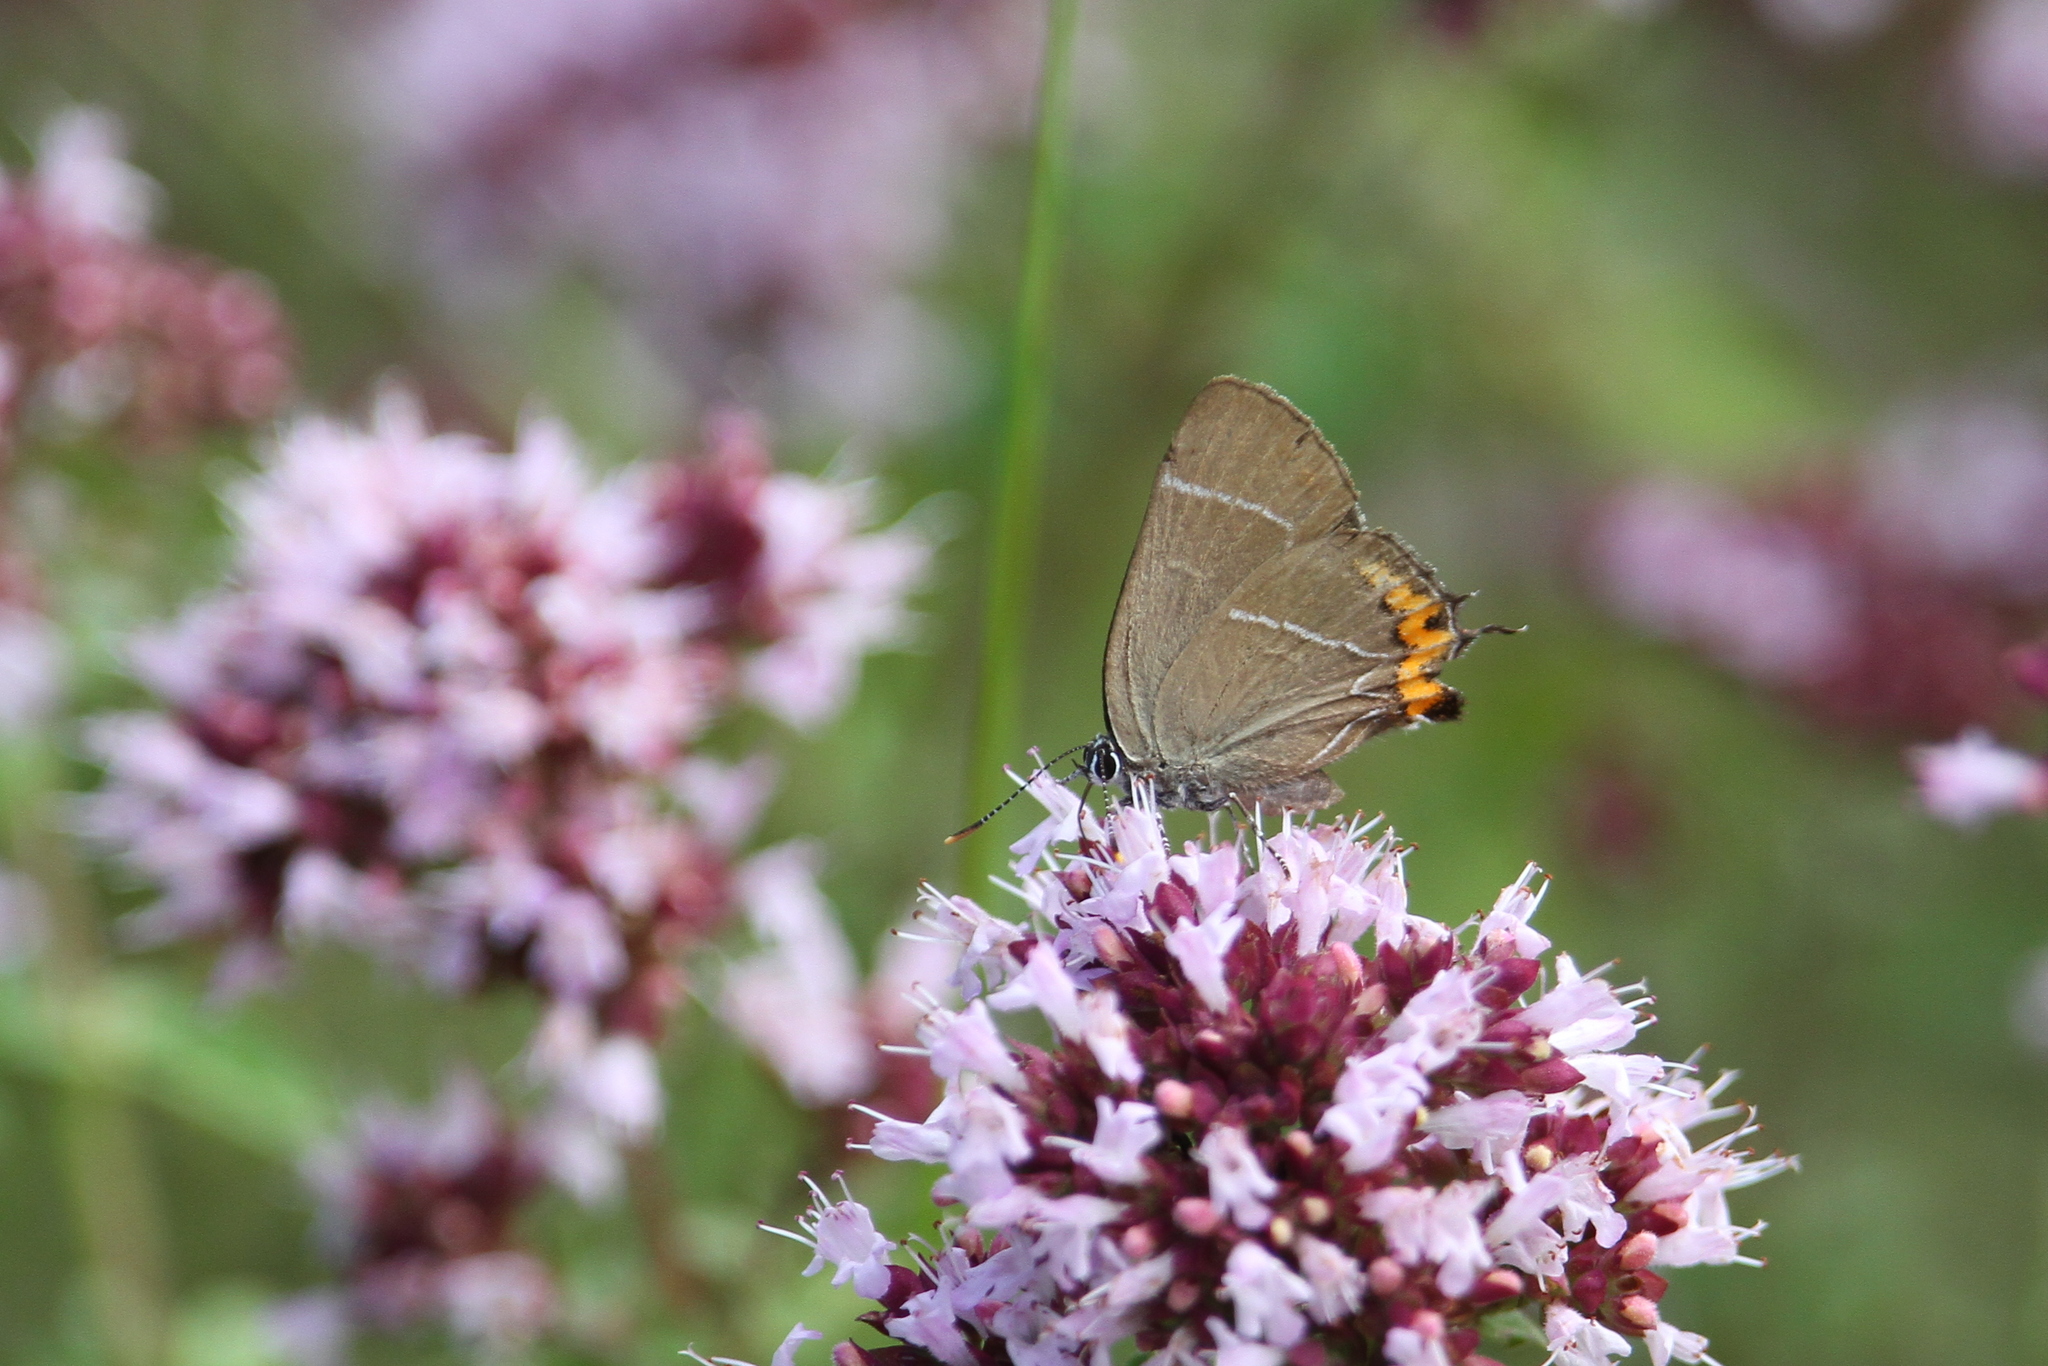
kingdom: Animalia
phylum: Arthropoda
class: Insecta
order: Lepidoptera
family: Lycaenidae
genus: Satyrium
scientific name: Satyrium w-album
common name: White-letter hairstreak
